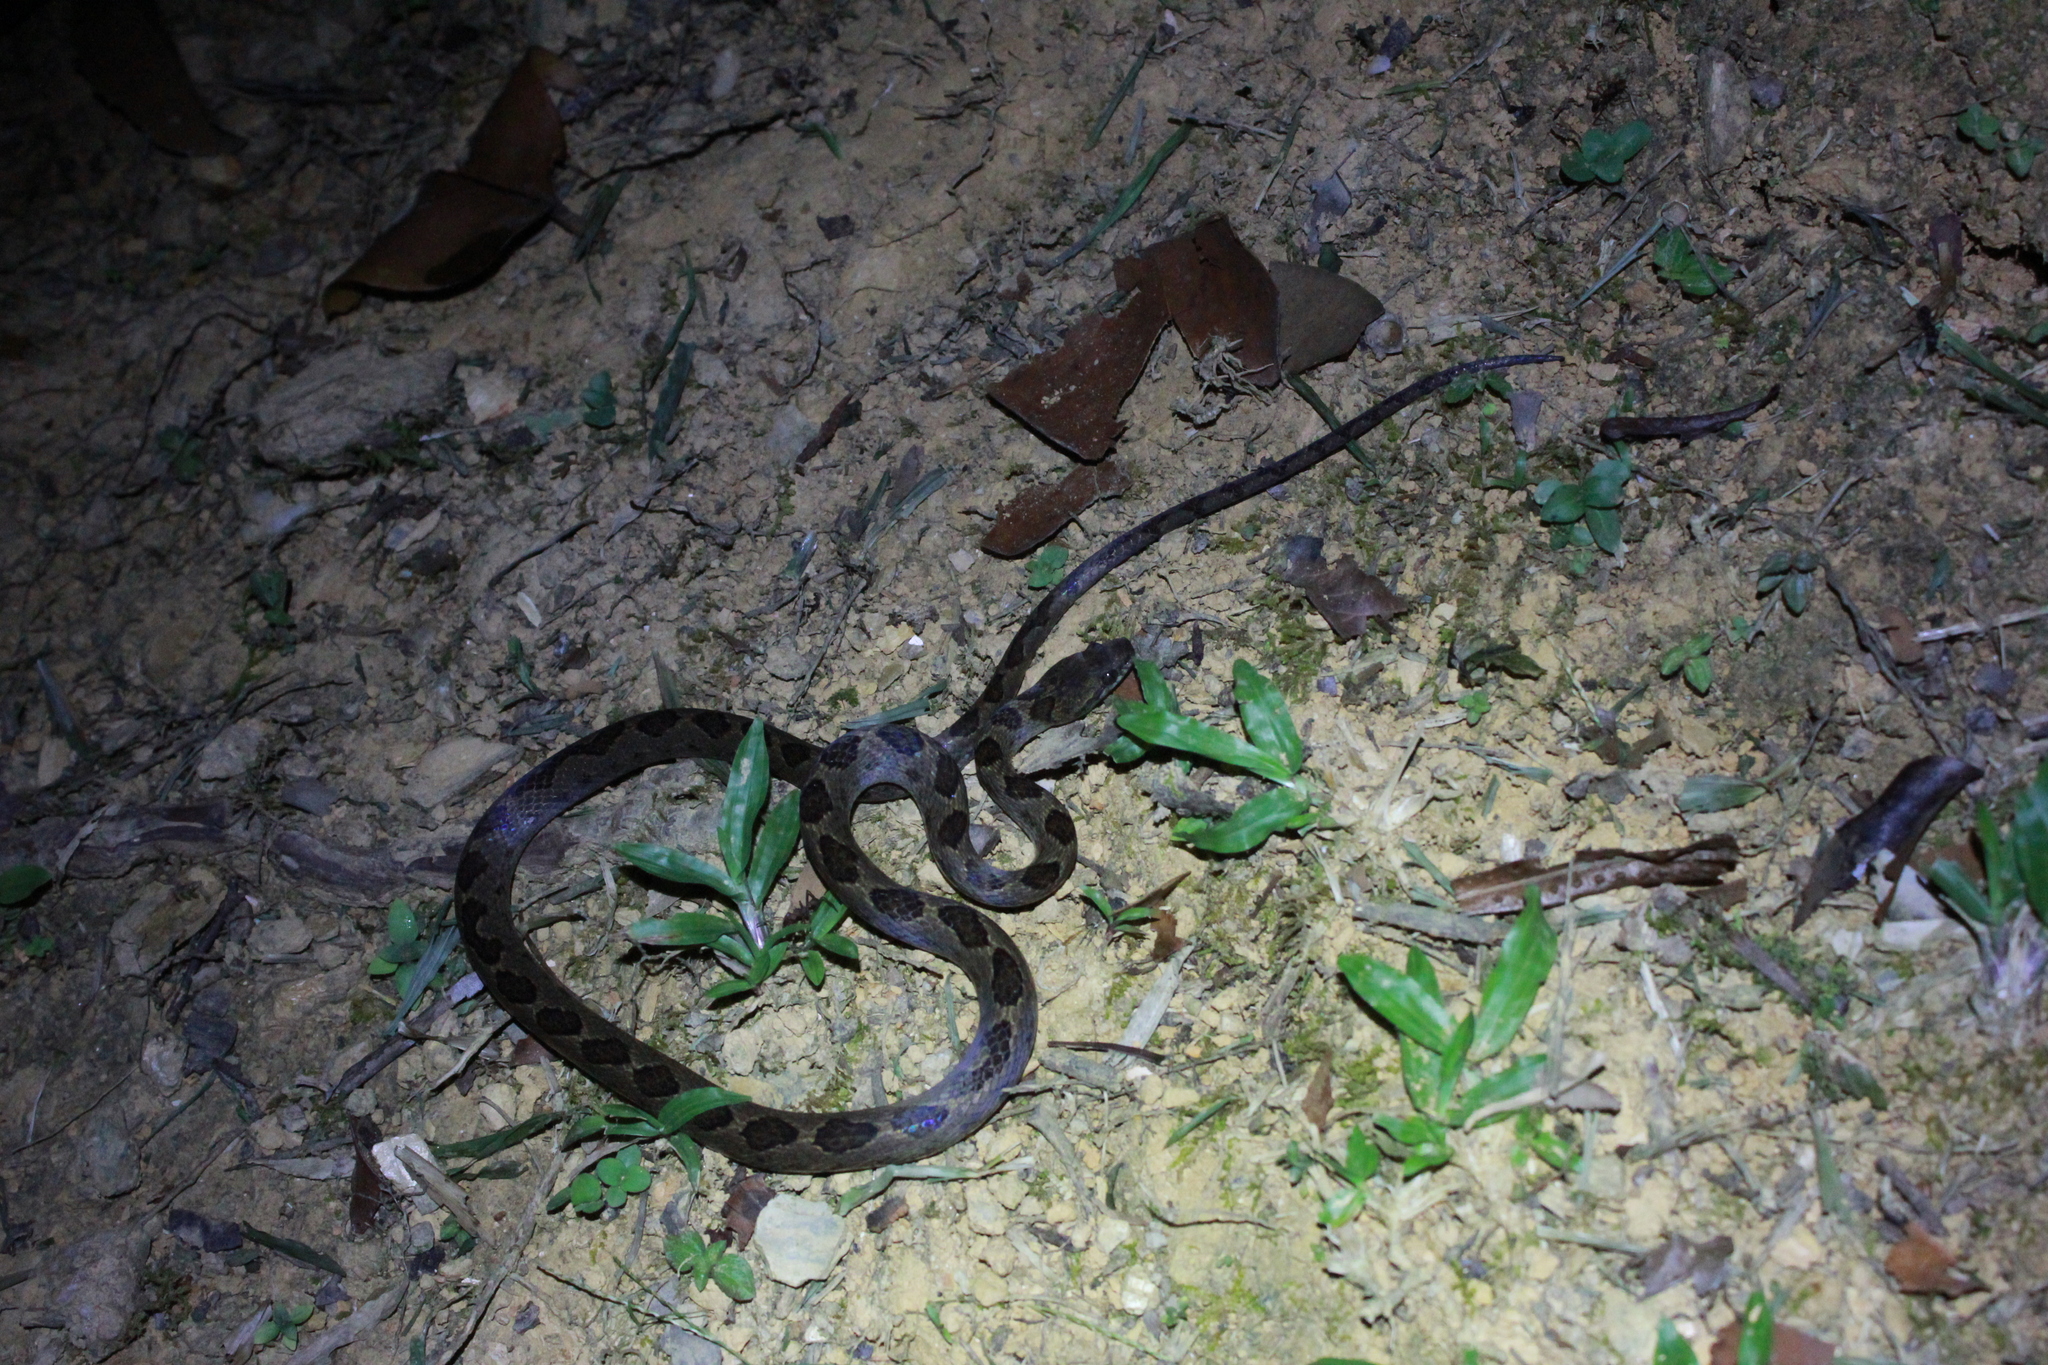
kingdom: Animalia
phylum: Chordata
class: Squamata
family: Colubridae
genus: Leptodeira
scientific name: Leptodeira ashmeadii
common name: Banded cat-eyed snake
